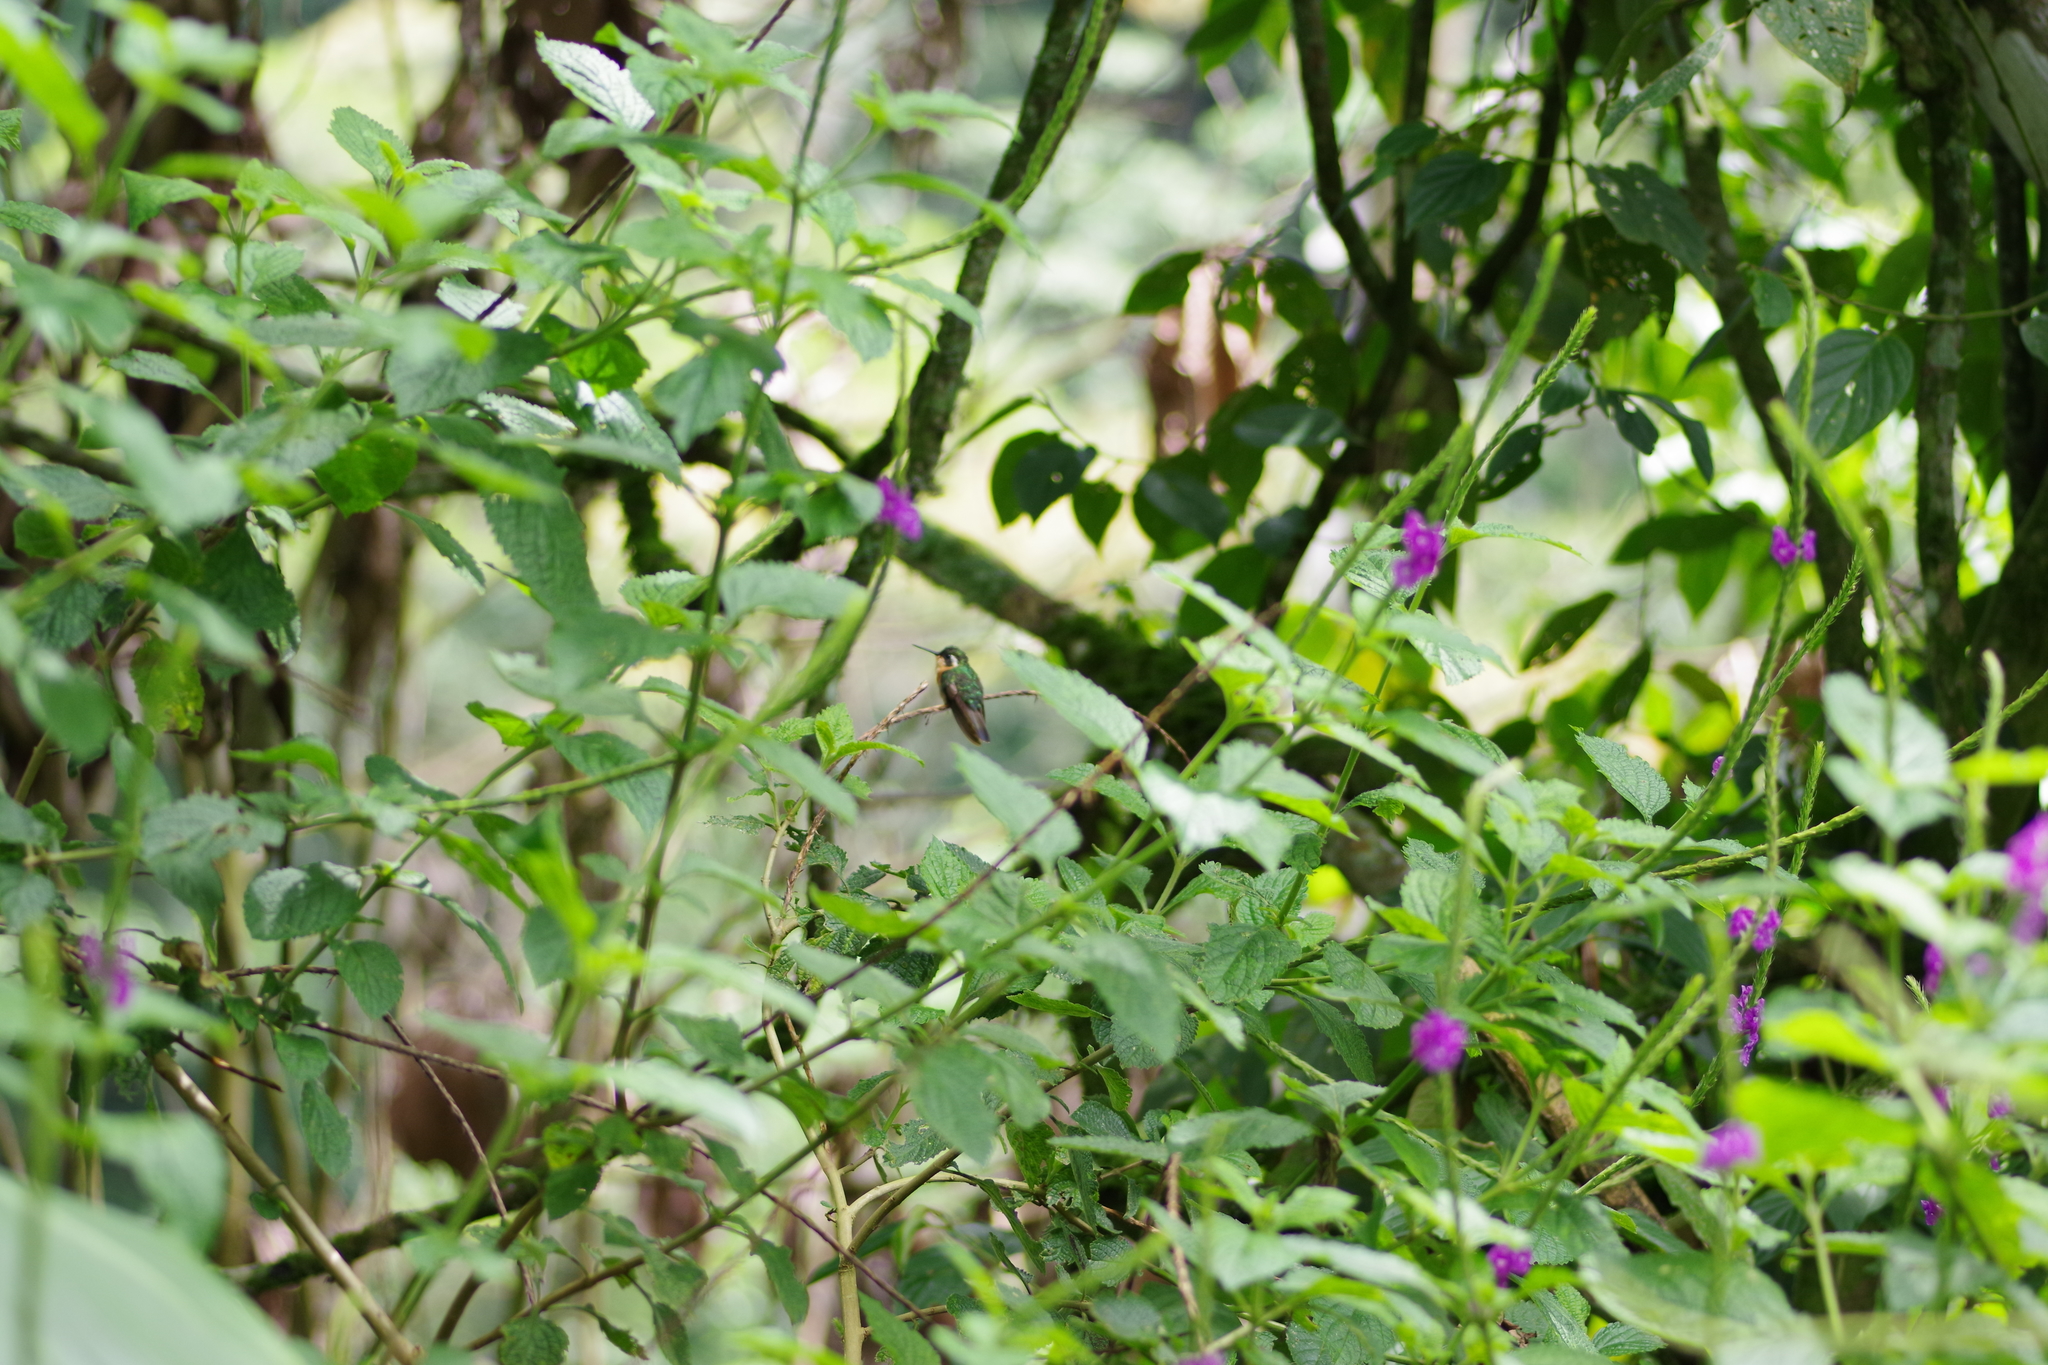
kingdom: Animalia
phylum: Chordata
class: Aves
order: Apodiformes
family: Trochilidae
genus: Lampornis
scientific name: Lampornis castaneoventris
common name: White-throated mountain-gem
